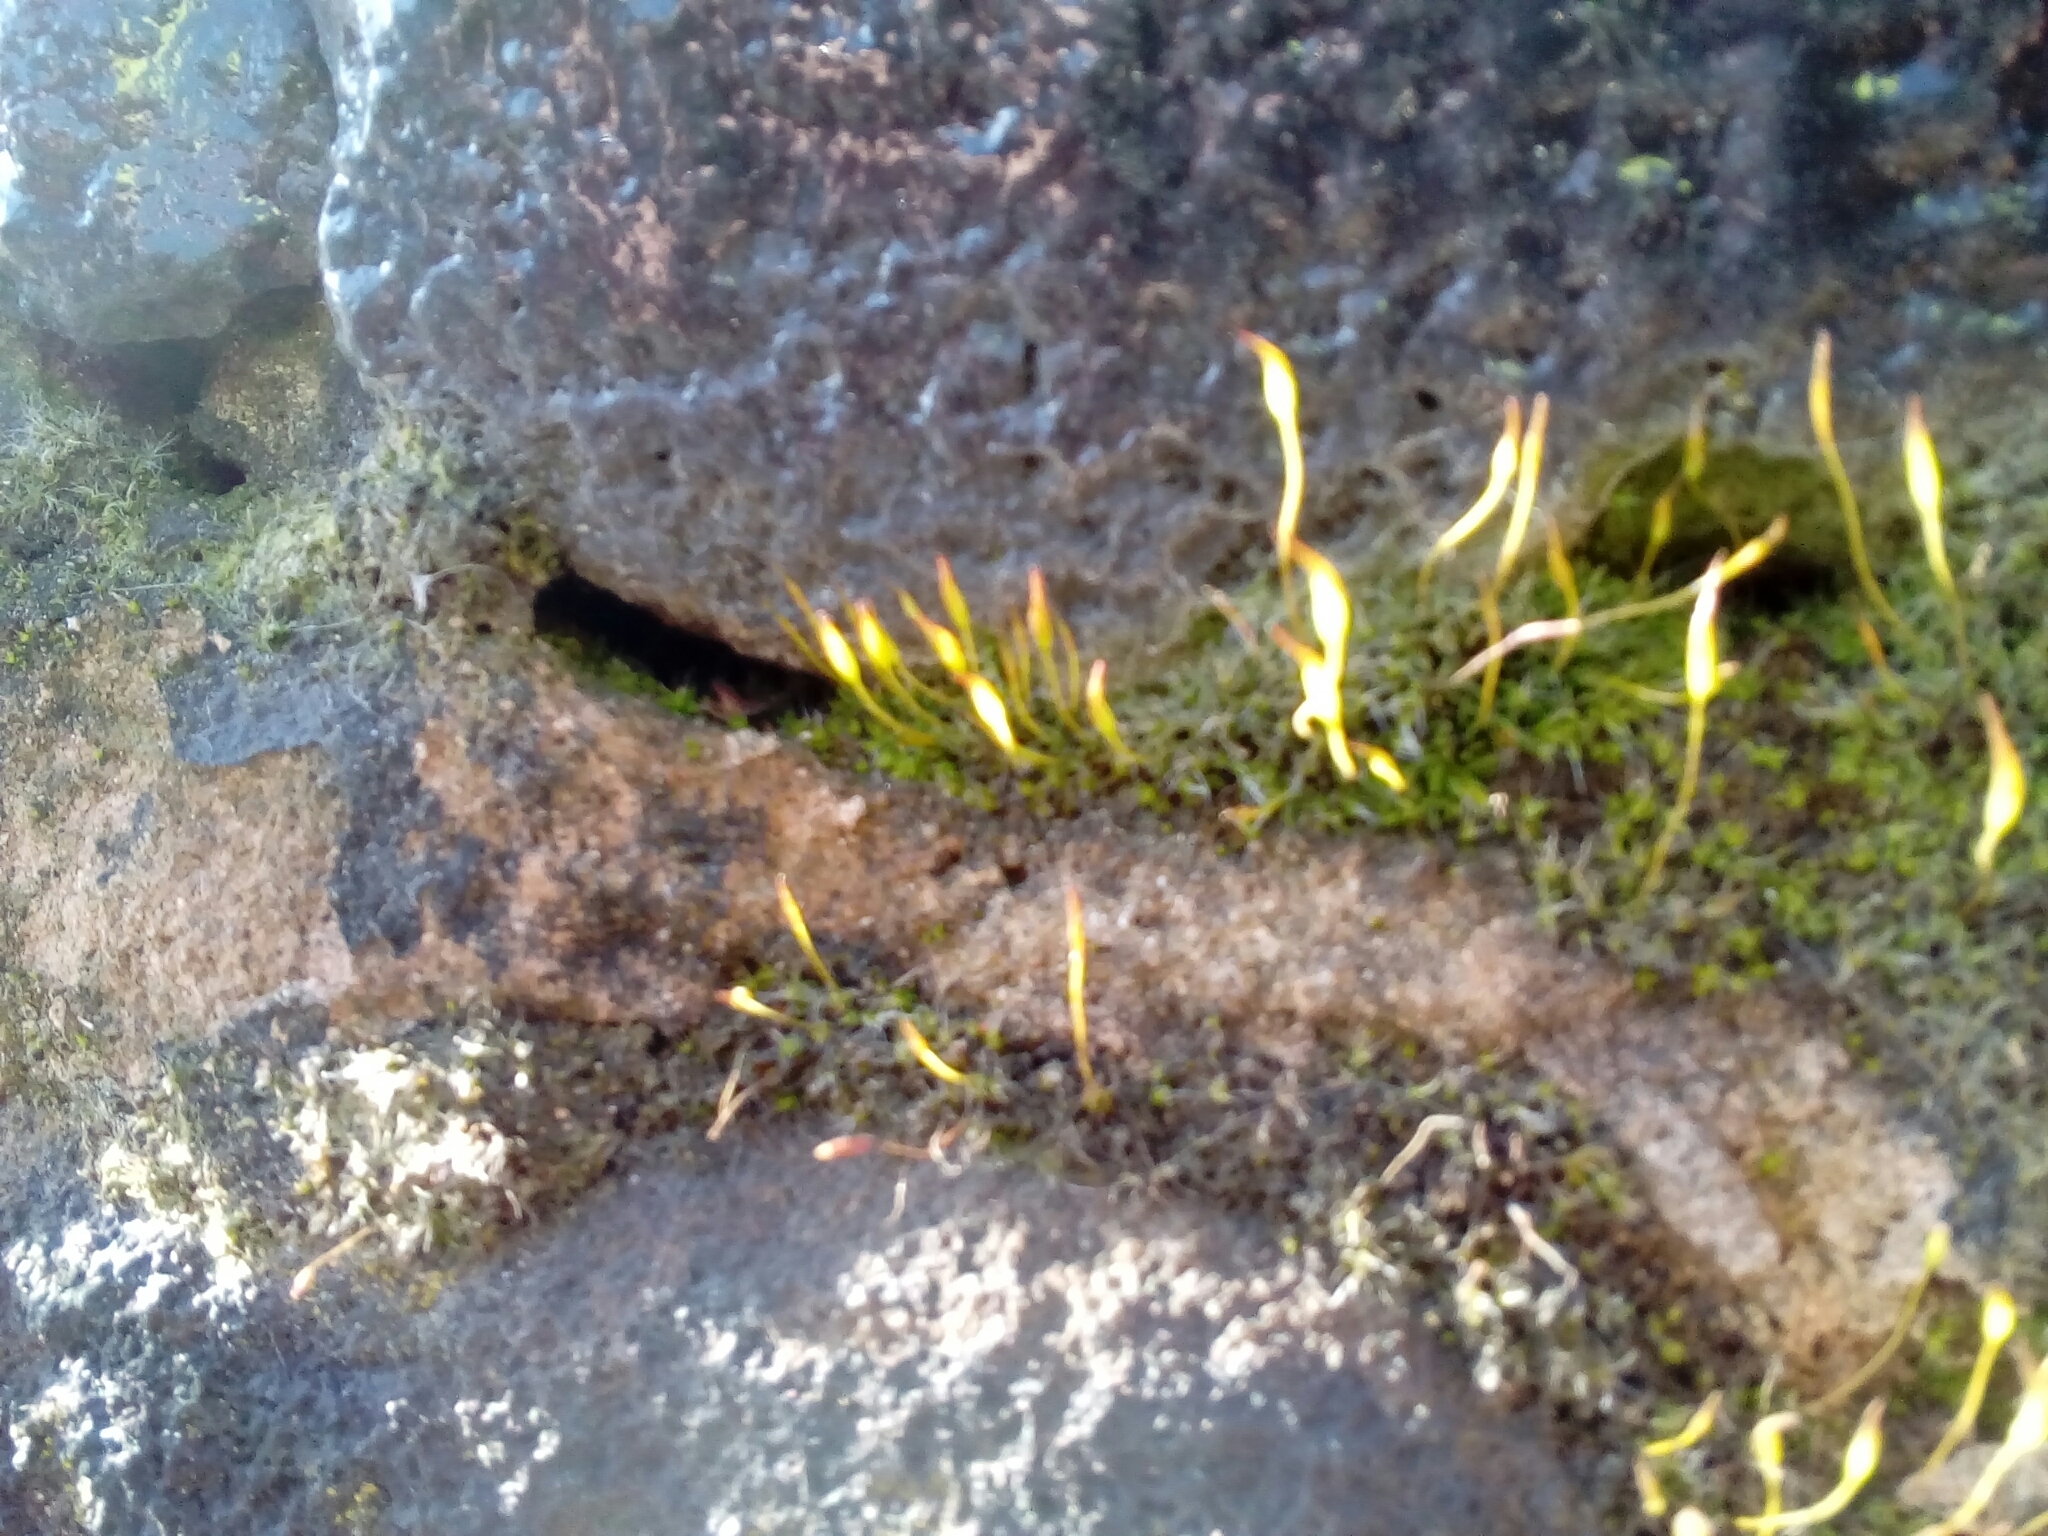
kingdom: Plantae
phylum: Bryophyta
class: Bryopsida
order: Pottiales
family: Pottiaceae
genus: Tortula
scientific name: Tortula muralis
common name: Wall screw-moss
